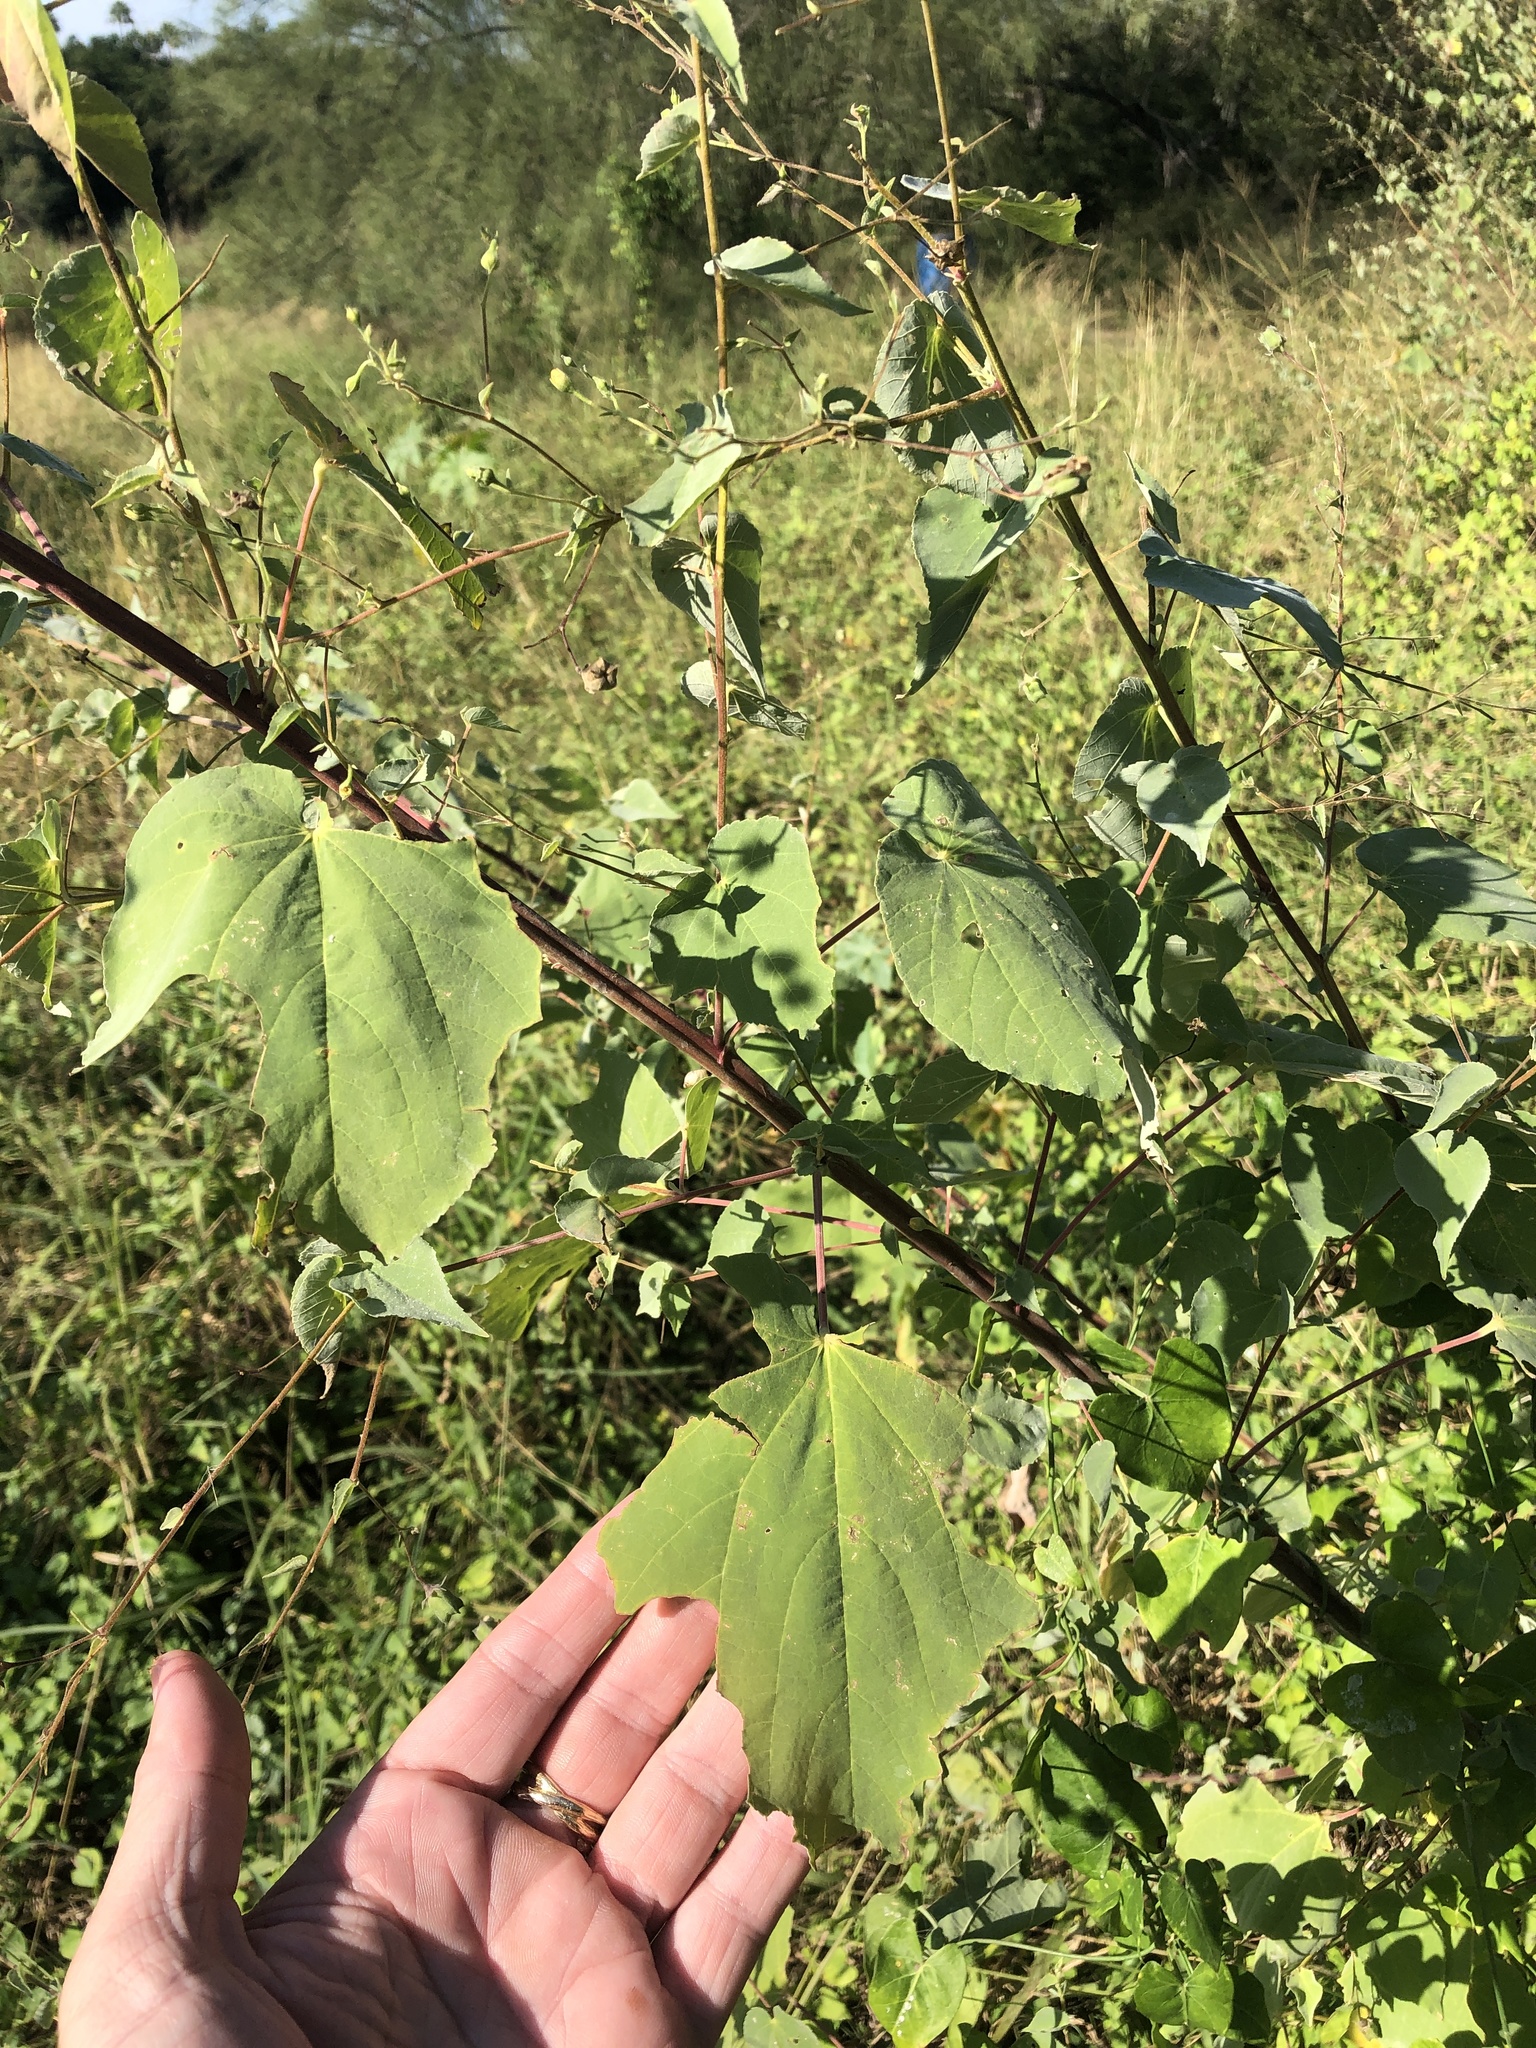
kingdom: Plantae
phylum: Tracheophyta
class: Magnoliopsida
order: Malvales
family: Malvaceae
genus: Abutilon
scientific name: Abutilon trisulcatum
